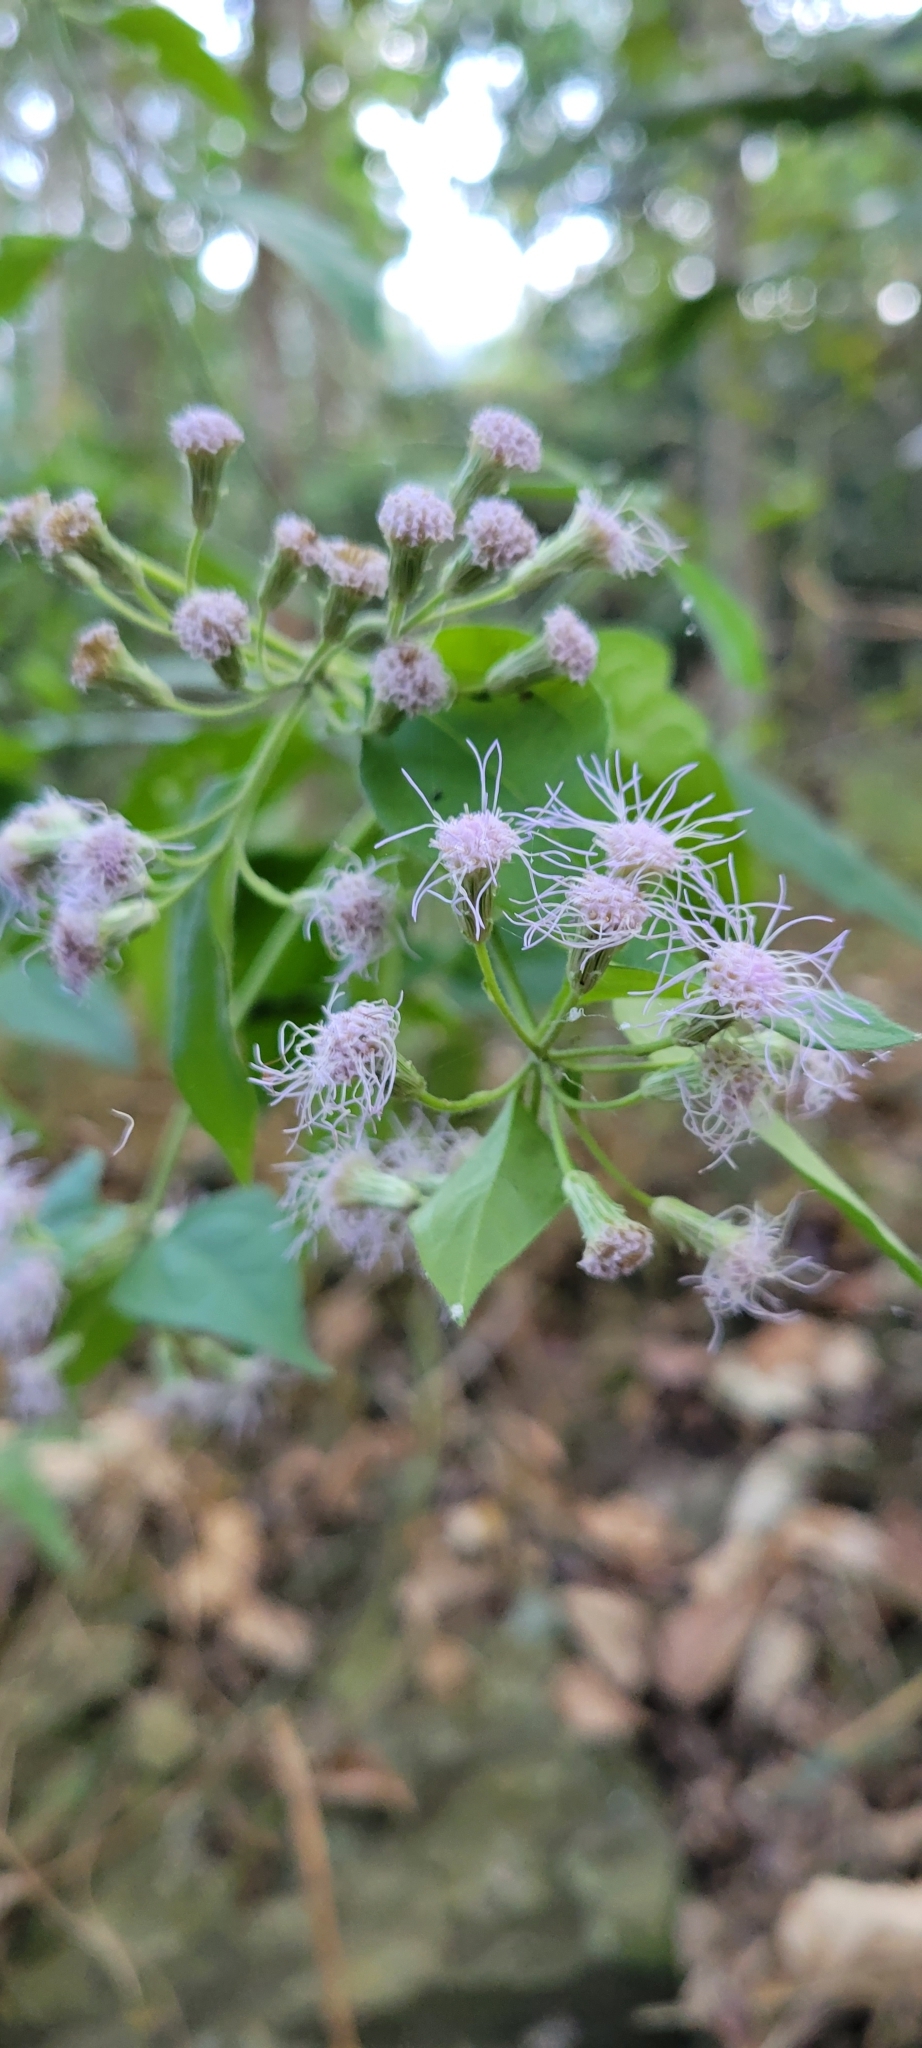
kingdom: Plantae
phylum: Tracheophyta
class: Magnoliopsida
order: Asterales
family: Asteraceae
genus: Chromolaena
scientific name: Chromolaena odorata
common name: Siamweed
